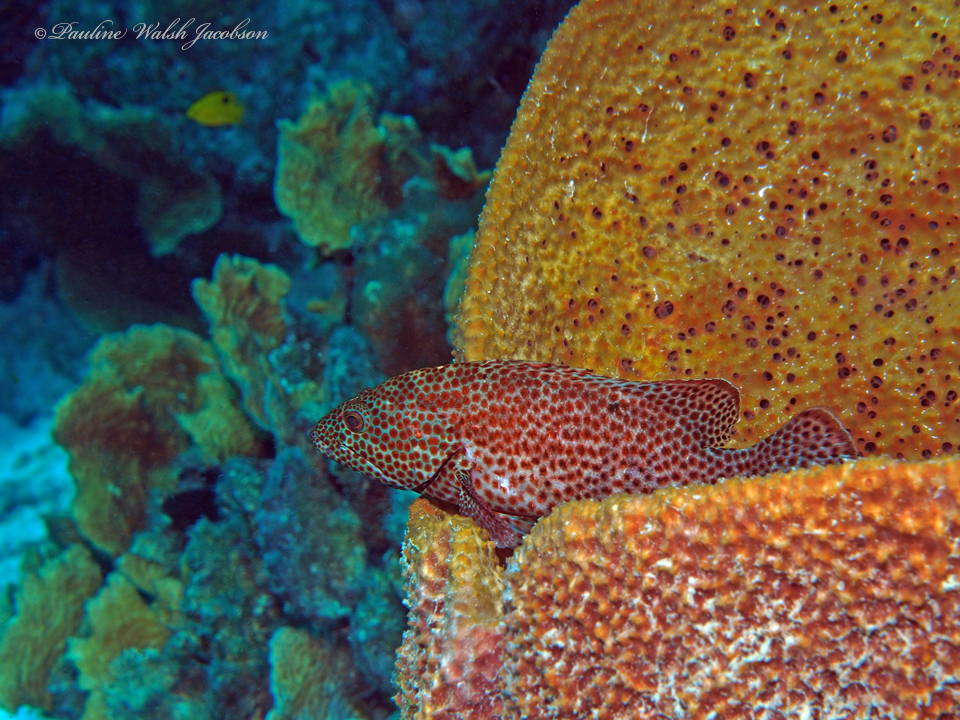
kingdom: Animalia
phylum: Chordata
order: Perciformes
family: Serranidae
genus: Cephalopholis
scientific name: Cephalopholis cruentata
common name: Graysby
